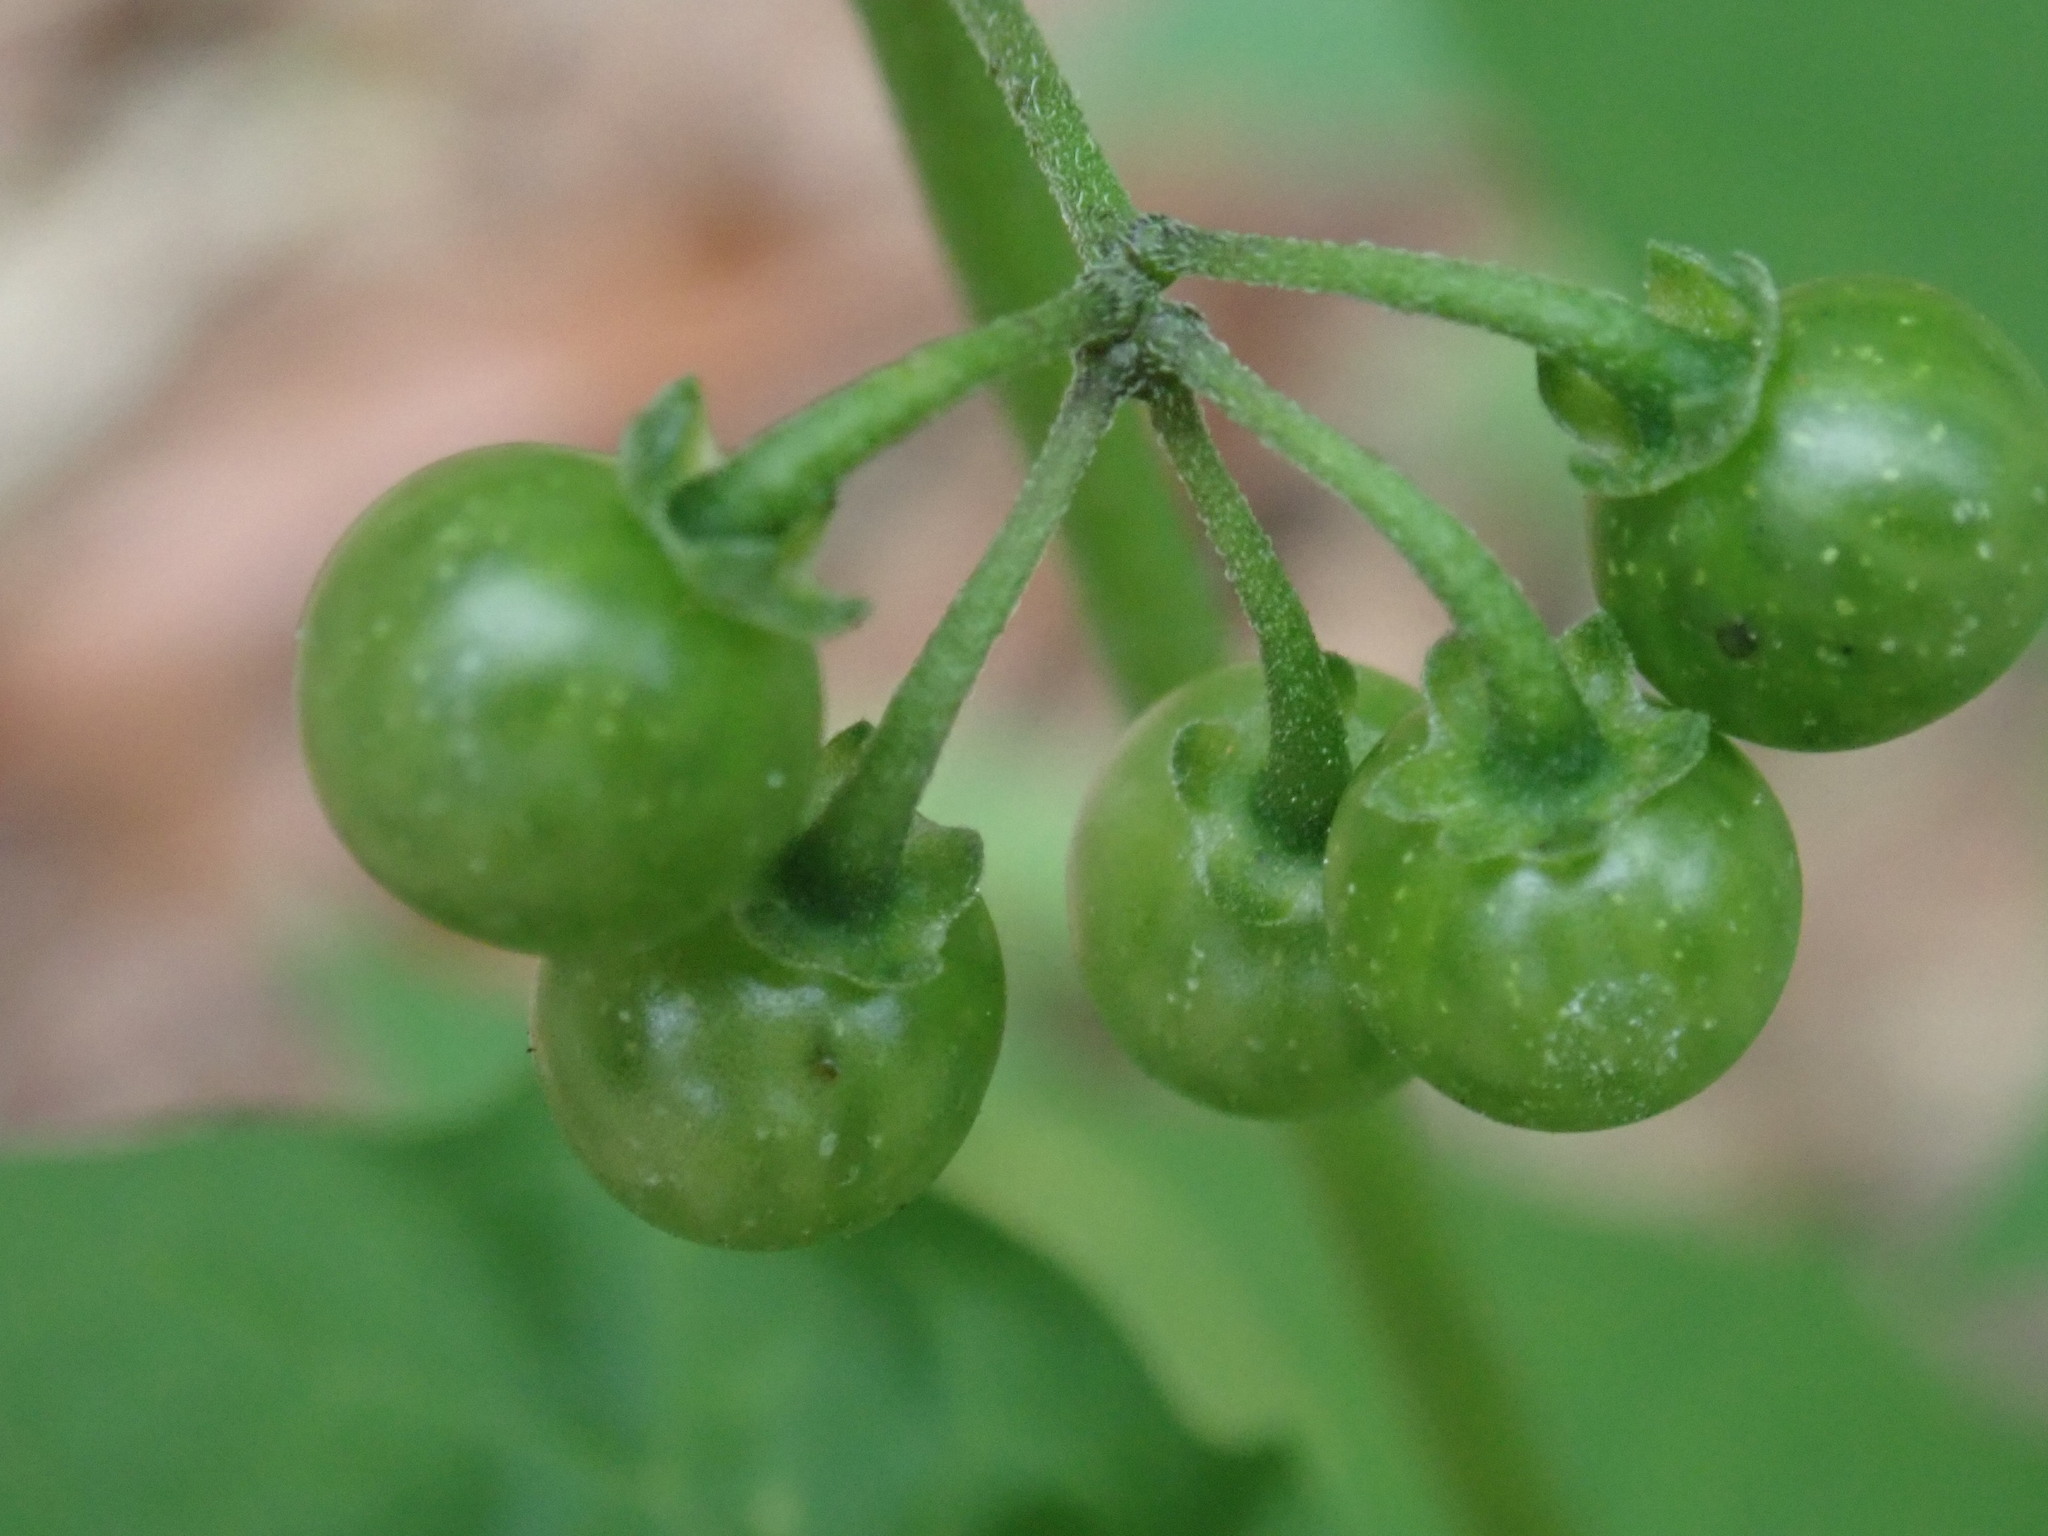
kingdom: Plantae
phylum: Tracheophyta
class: Magnoliopsida
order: Solanales
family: Solanaceae
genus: Solanum
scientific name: Solanum americanum
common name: American black nightshade
